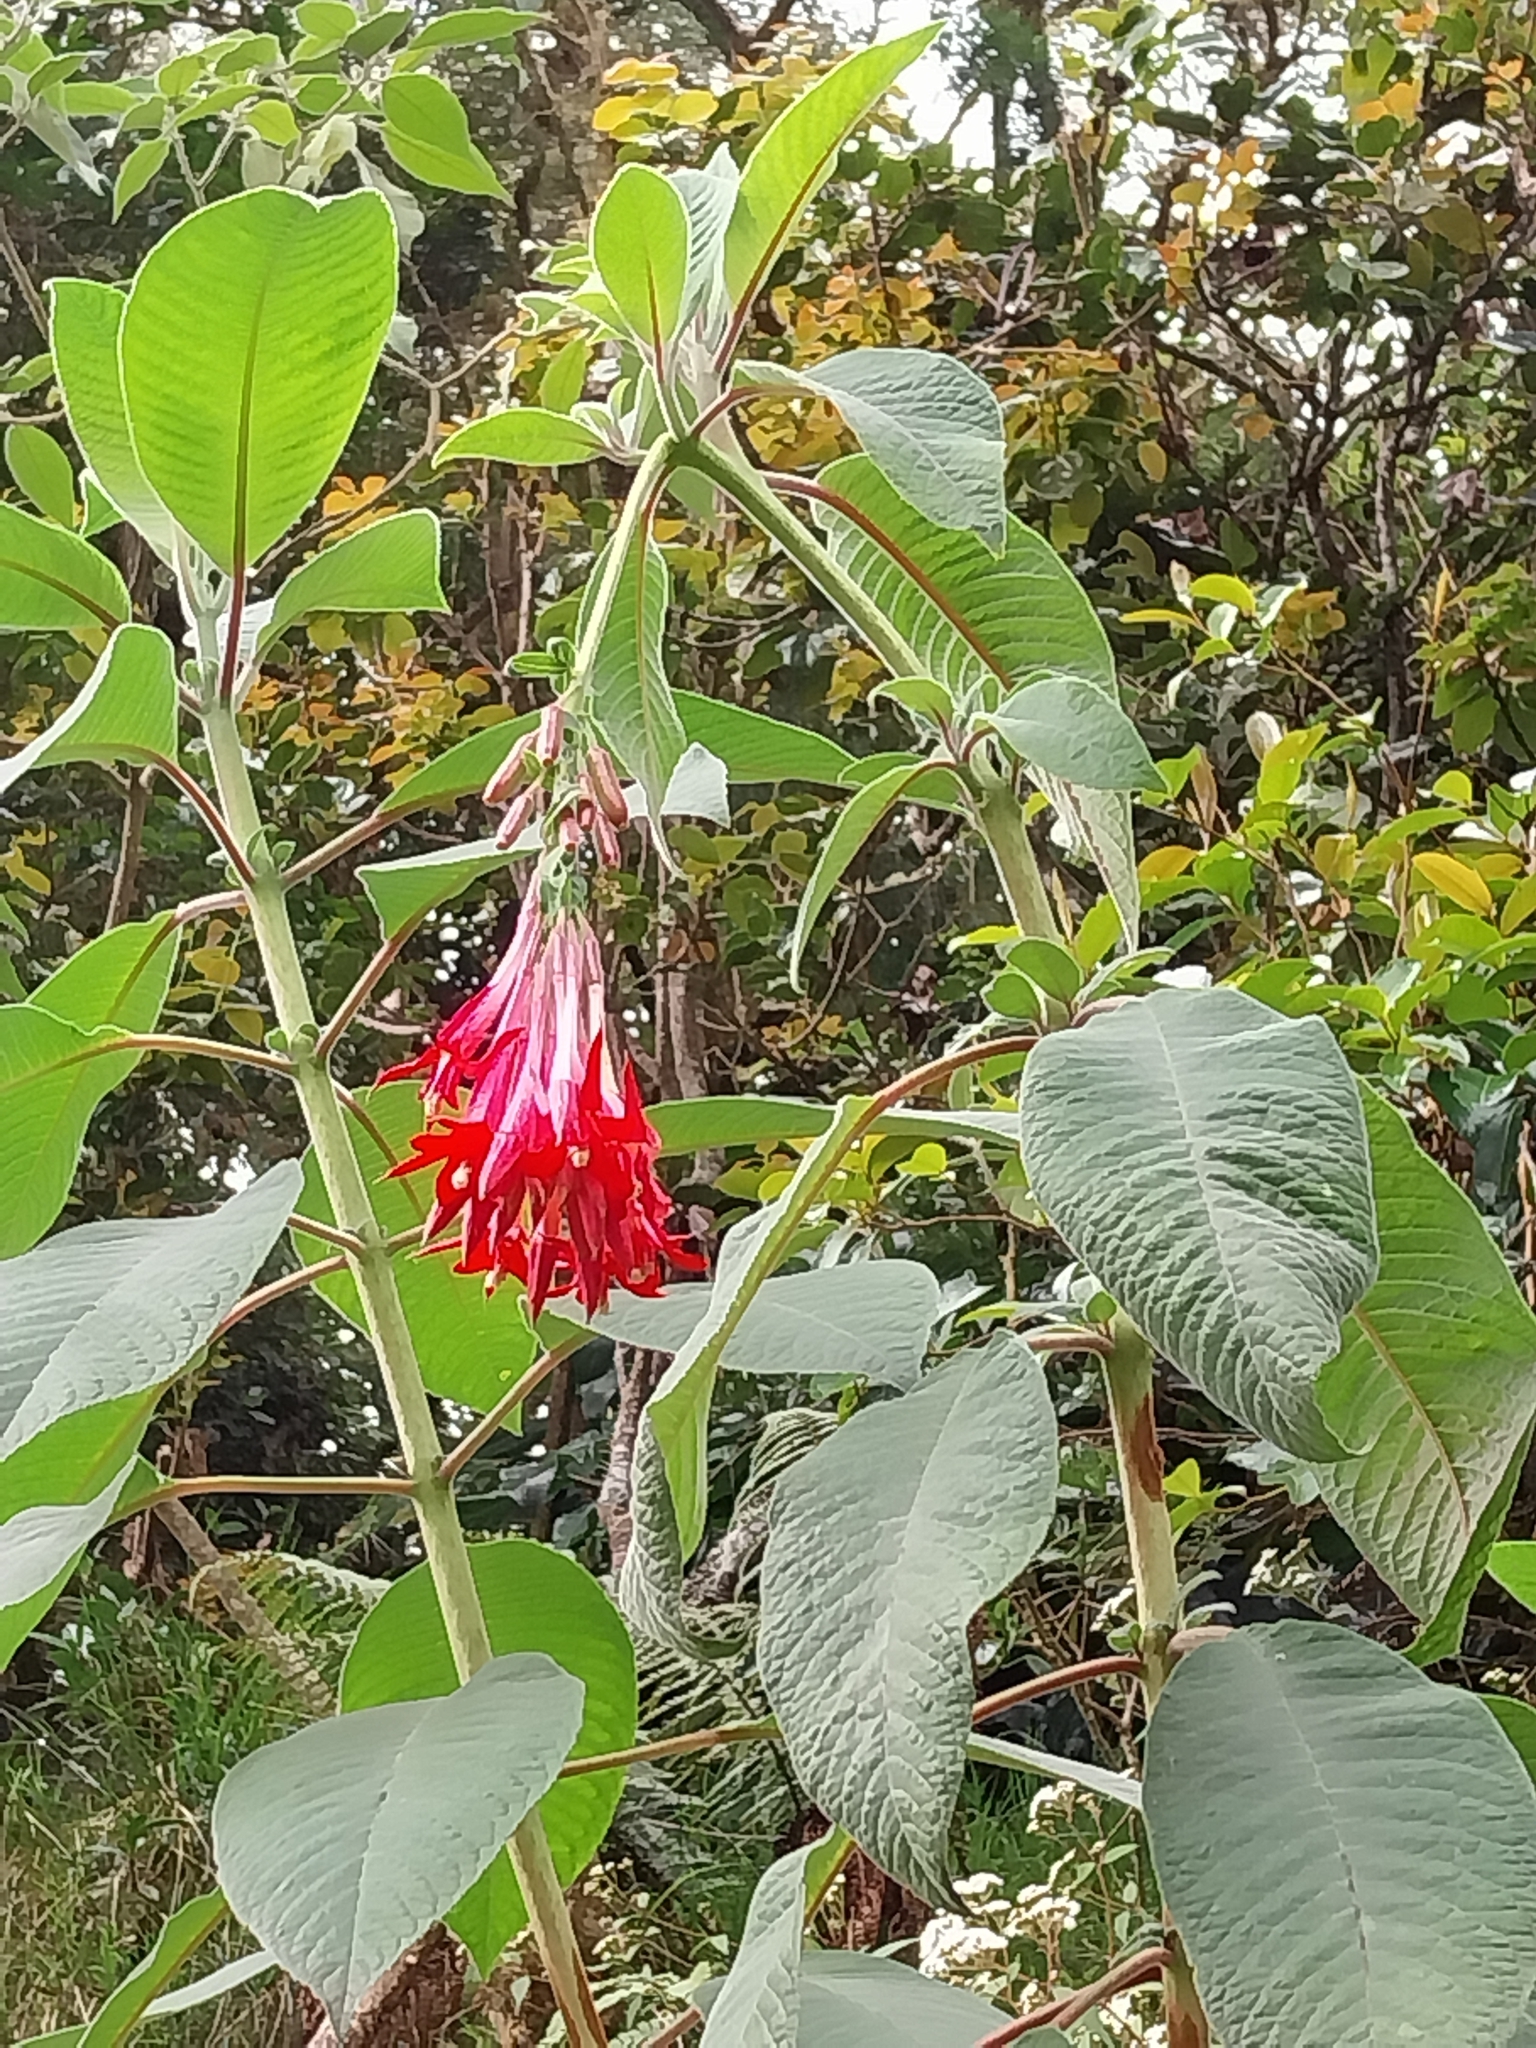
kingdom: Plantae
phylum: Tracheophyta
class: Magnoliopsida
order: Myrtales
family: Onagraceae
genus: Fuchsia
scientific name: Fuchsia boliviana
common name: Bolivian fuchsia
